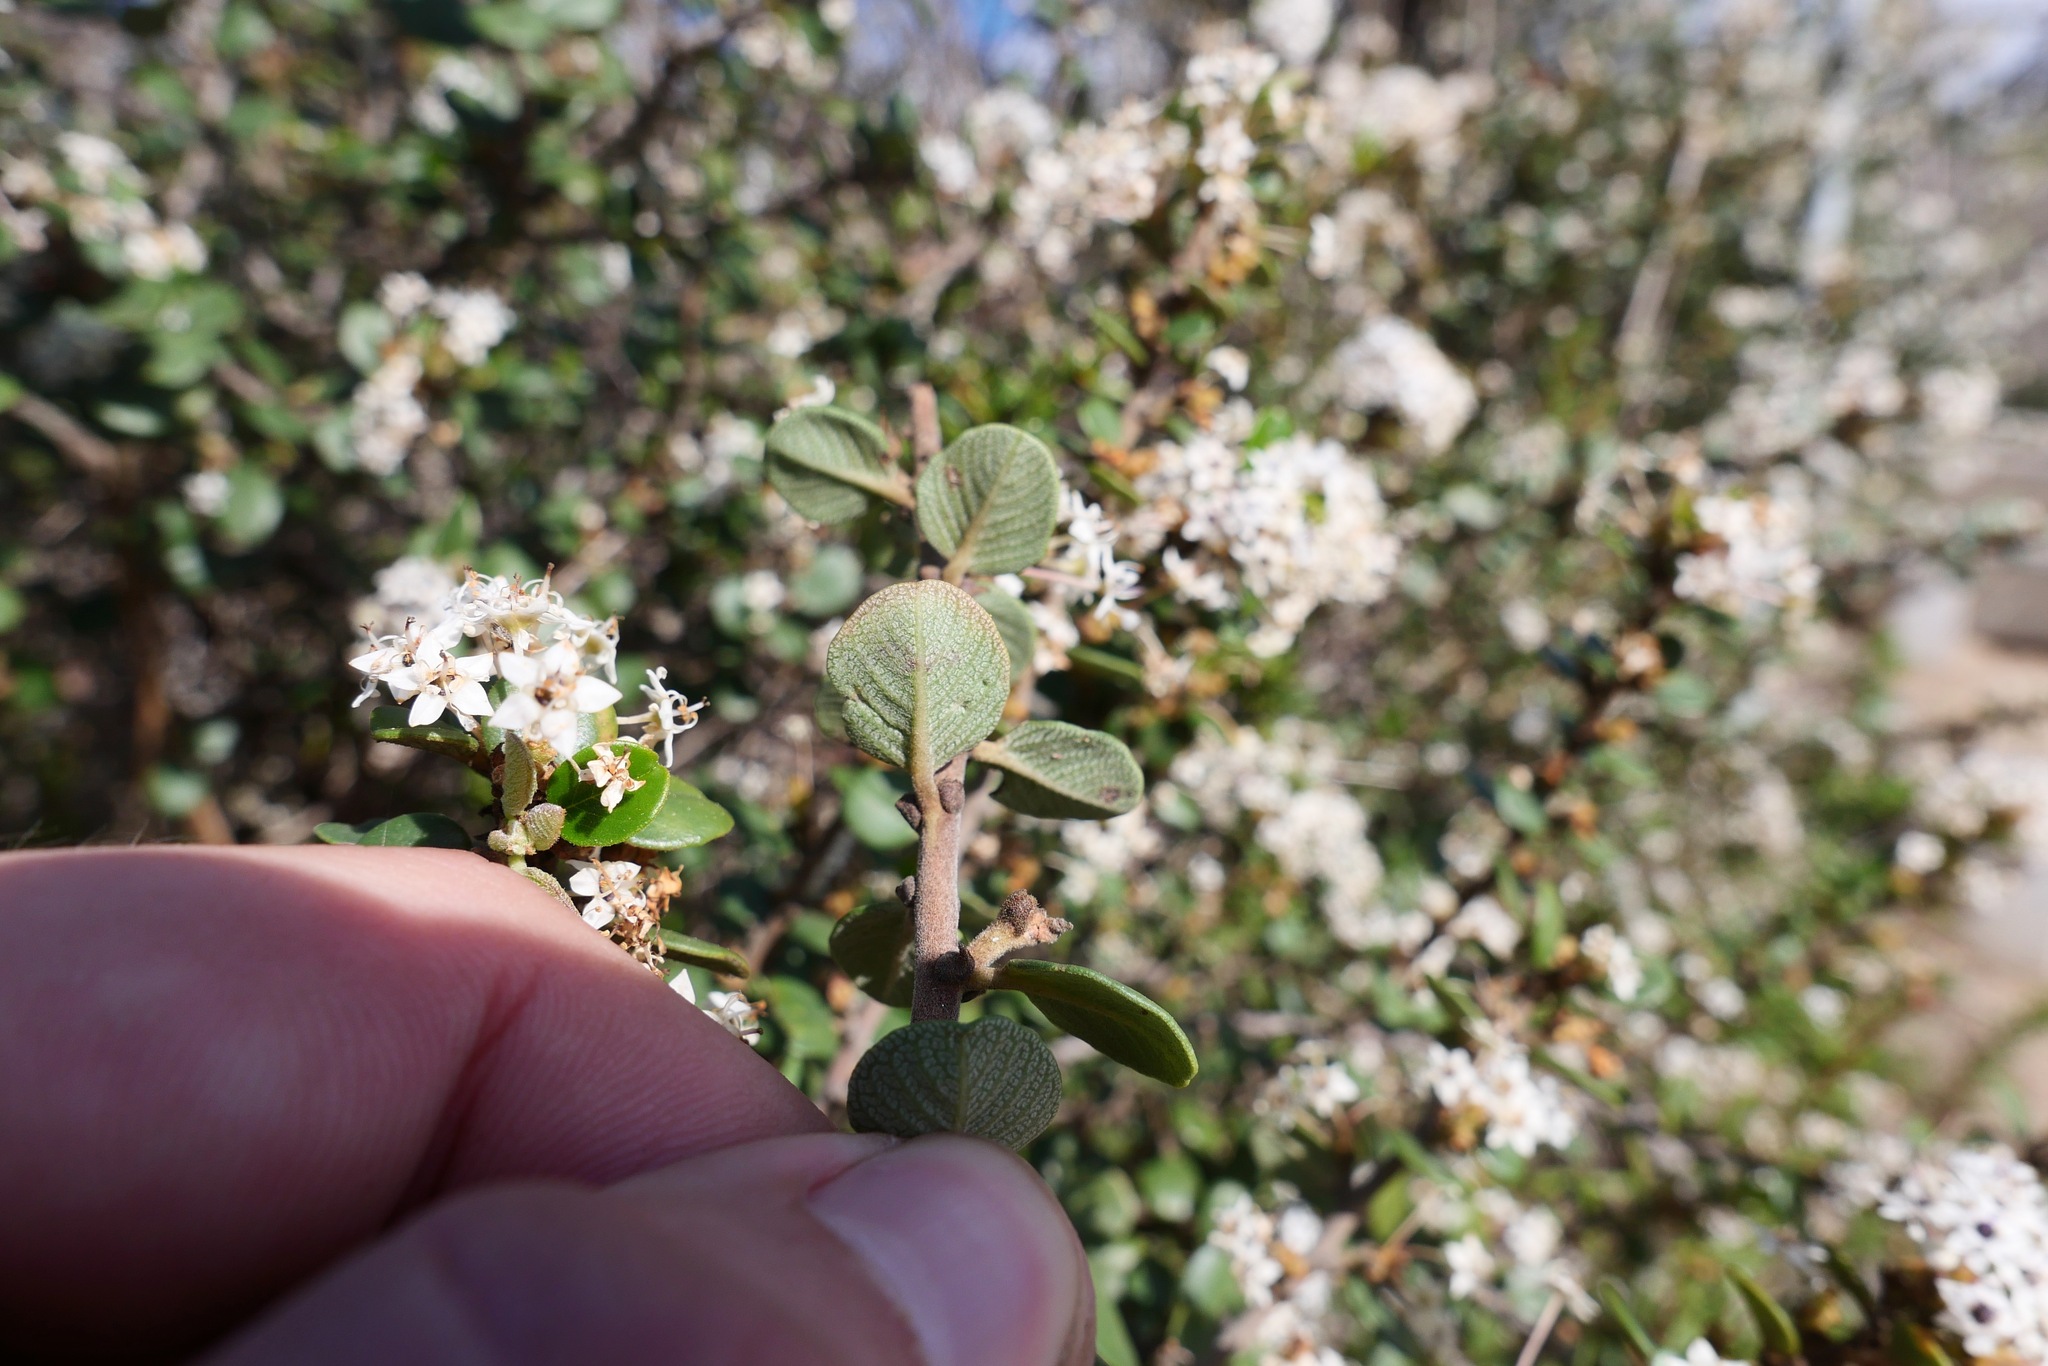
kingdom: Plantae
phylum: Tracheophyta
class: Magnoliopsida
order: Rosales
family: Rhamnaceae
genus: Ceanothus
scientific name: Ceanothus verrucosus
